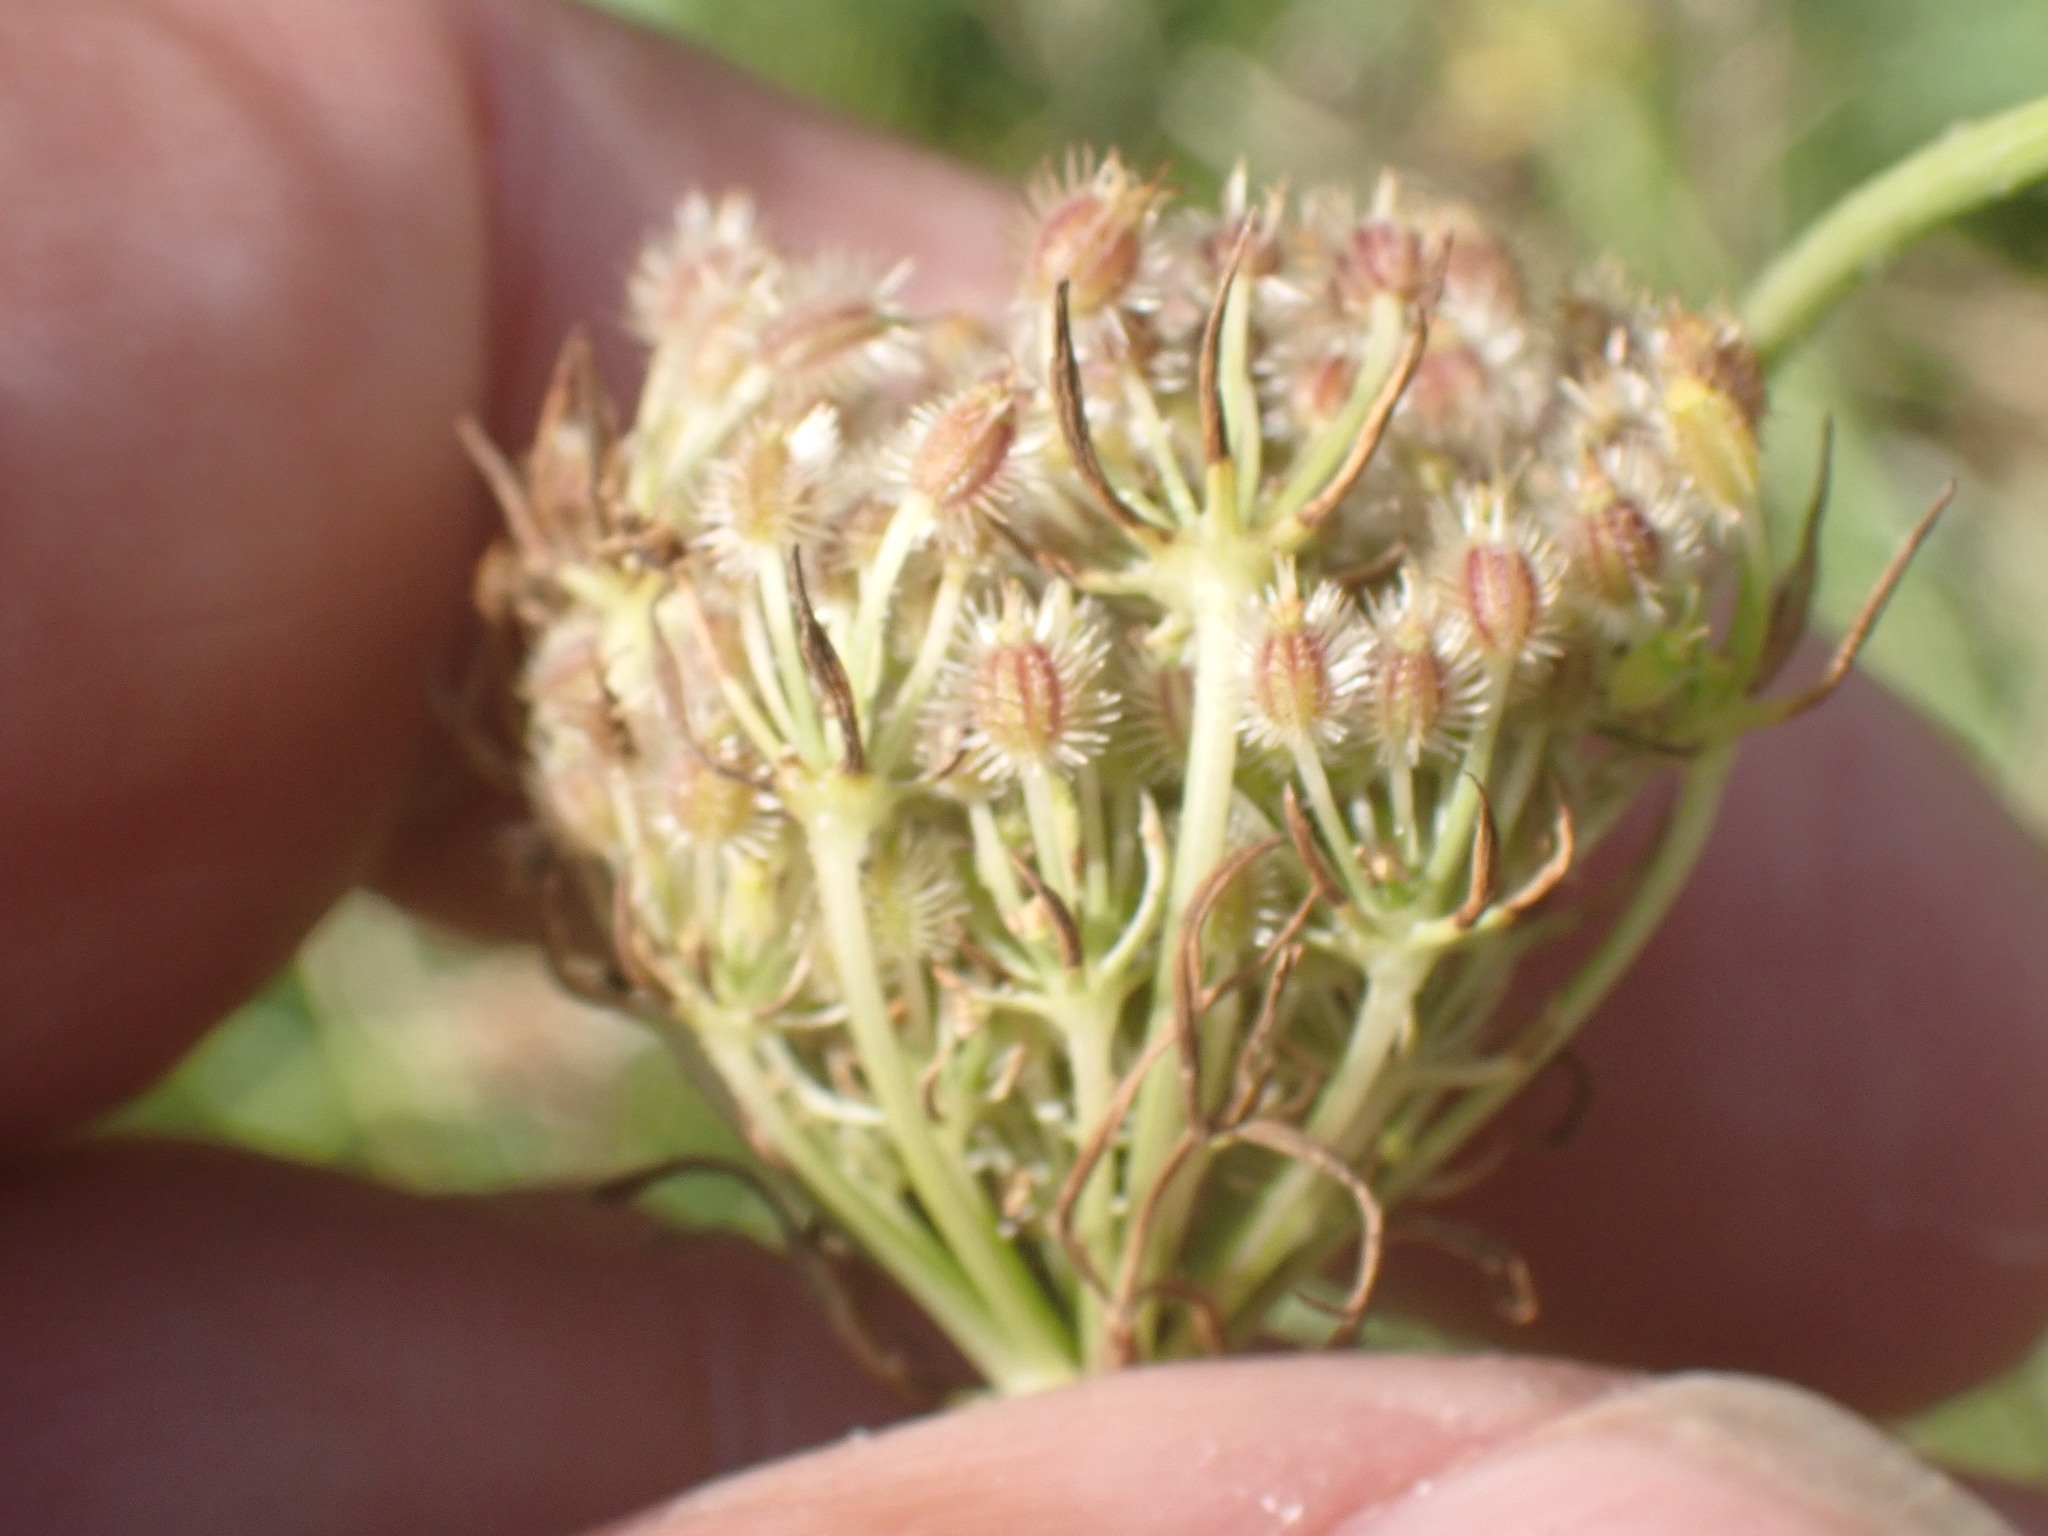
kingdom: Plantae
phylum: Tracheophyta
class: Magnoliopsida
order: Apiales
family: Apiaceae
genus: Daucus
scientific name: Daucus carota
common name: Wild carrot
